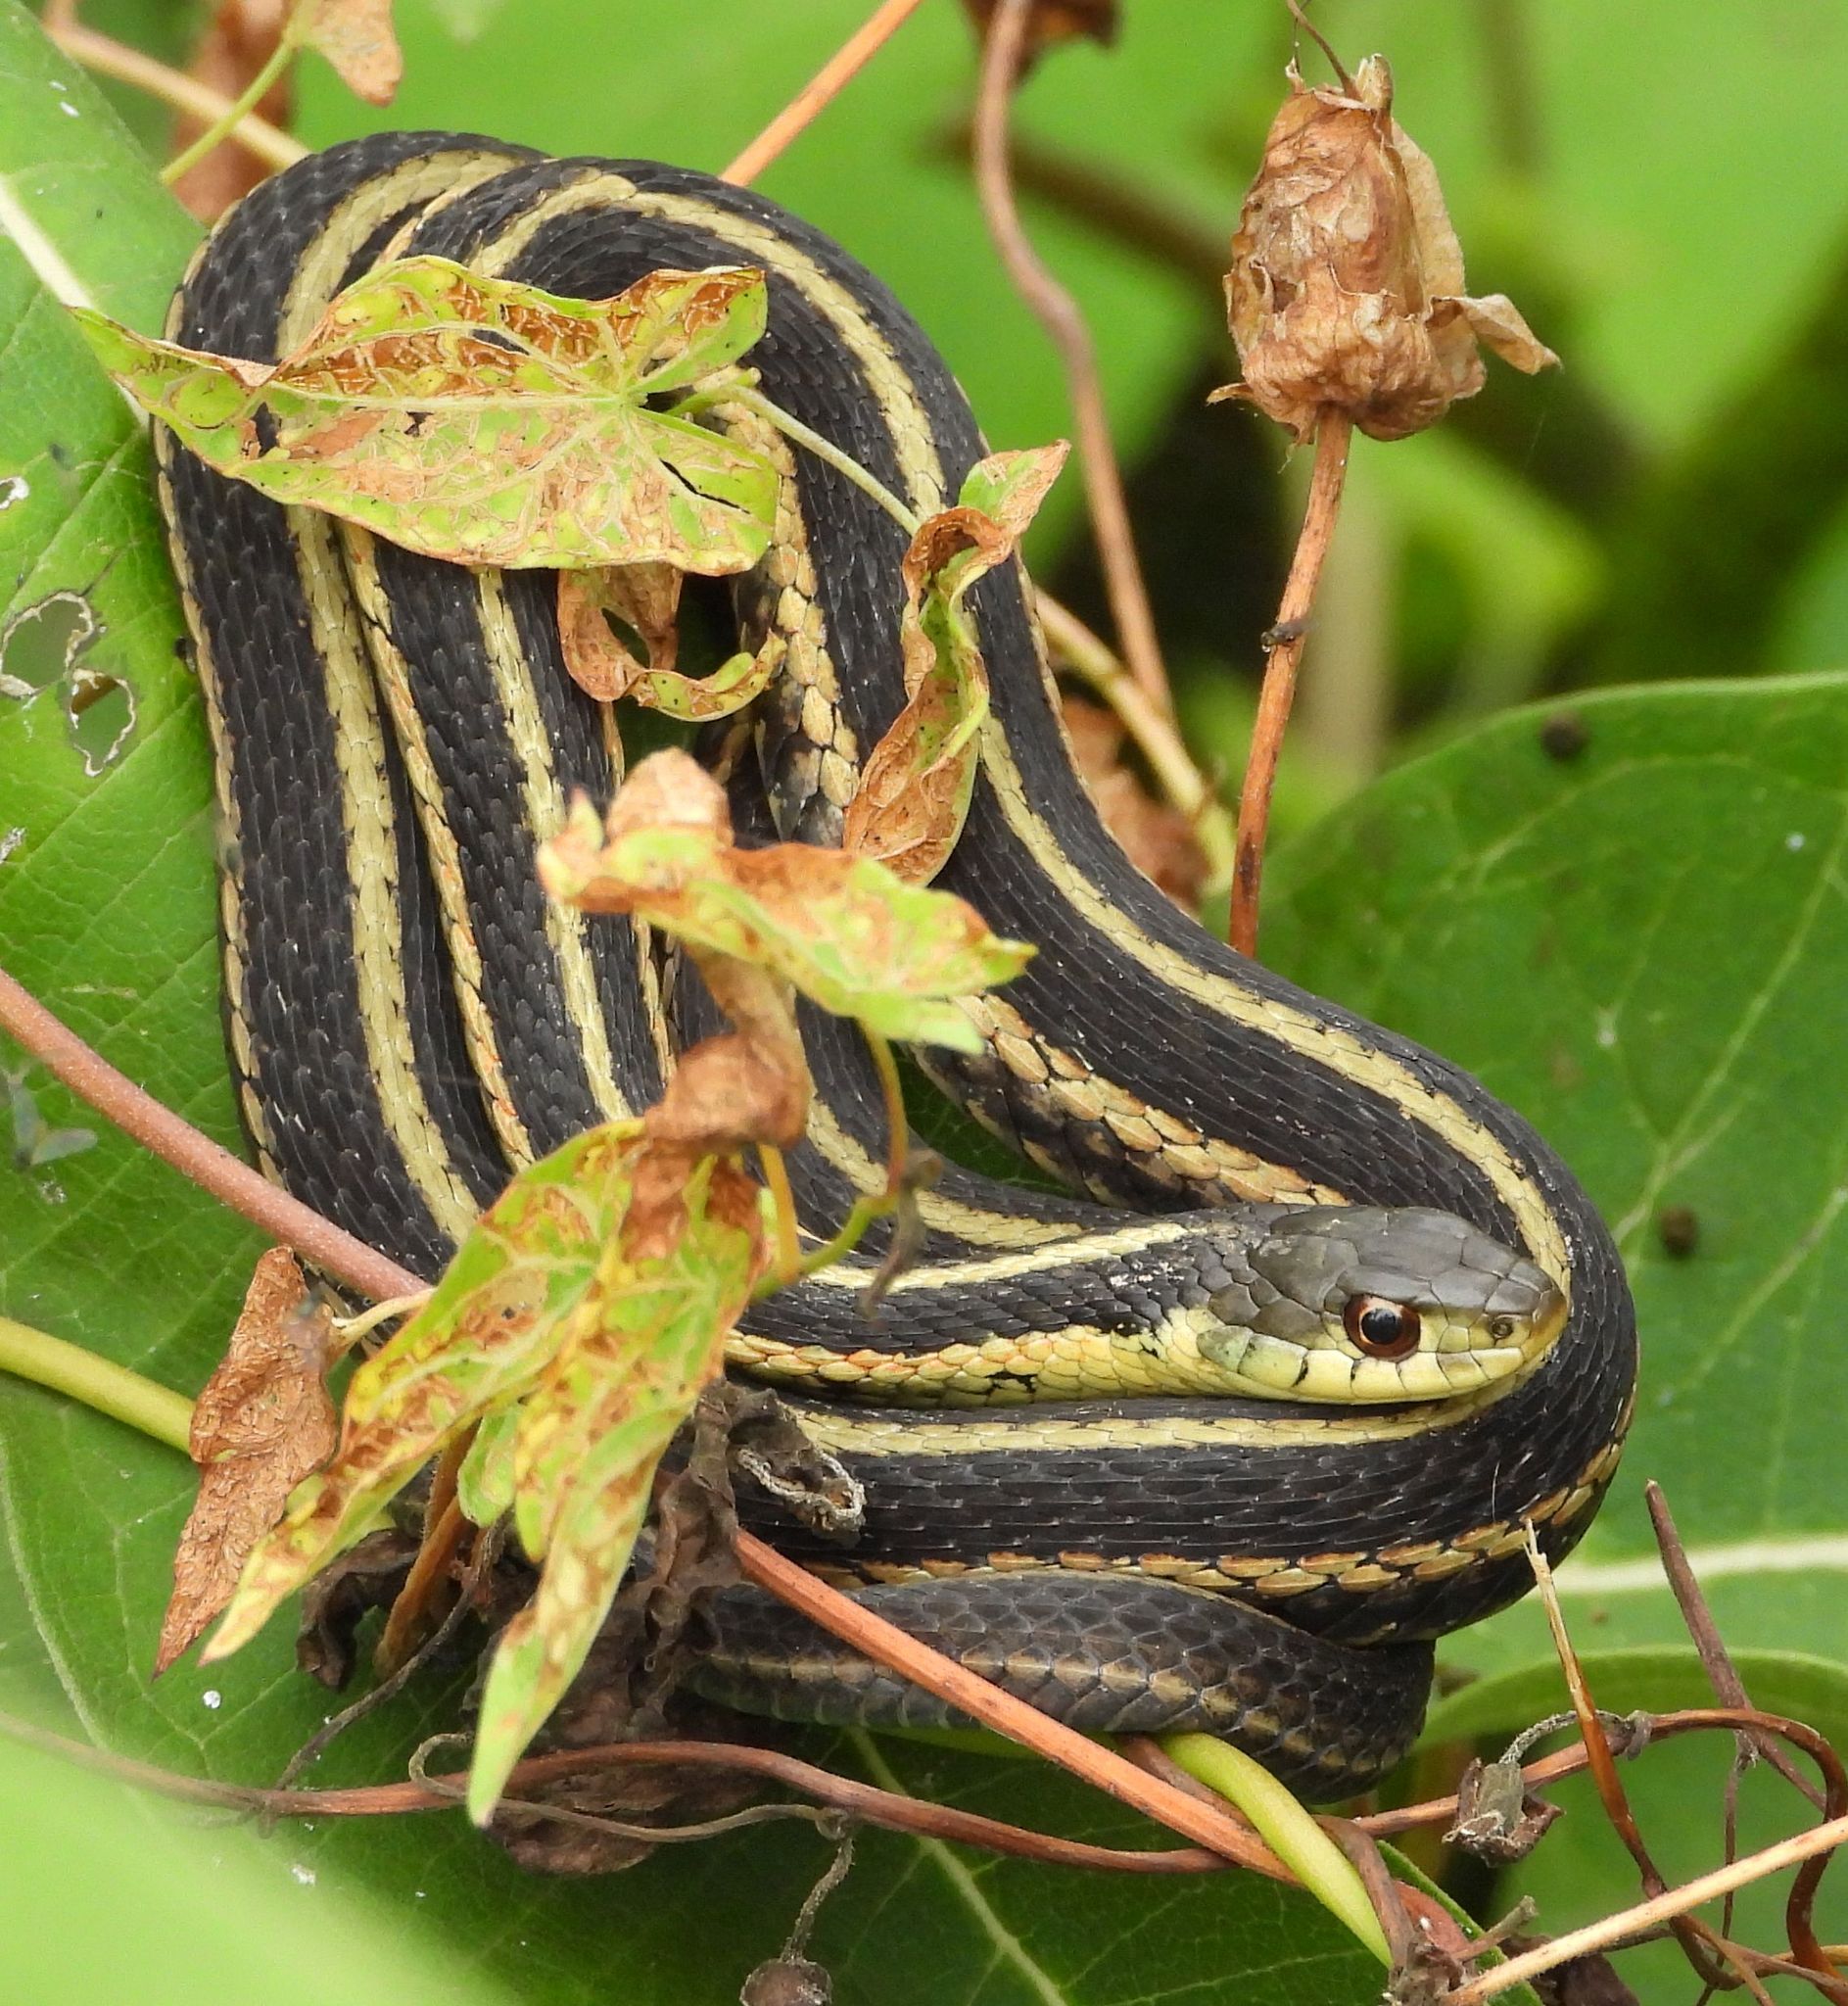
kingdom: Animalia
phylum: Chordata
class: Squamata
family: Colubridae
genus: Thamnophis
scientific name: Thamnophis sirtalis
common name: Common garter snake
